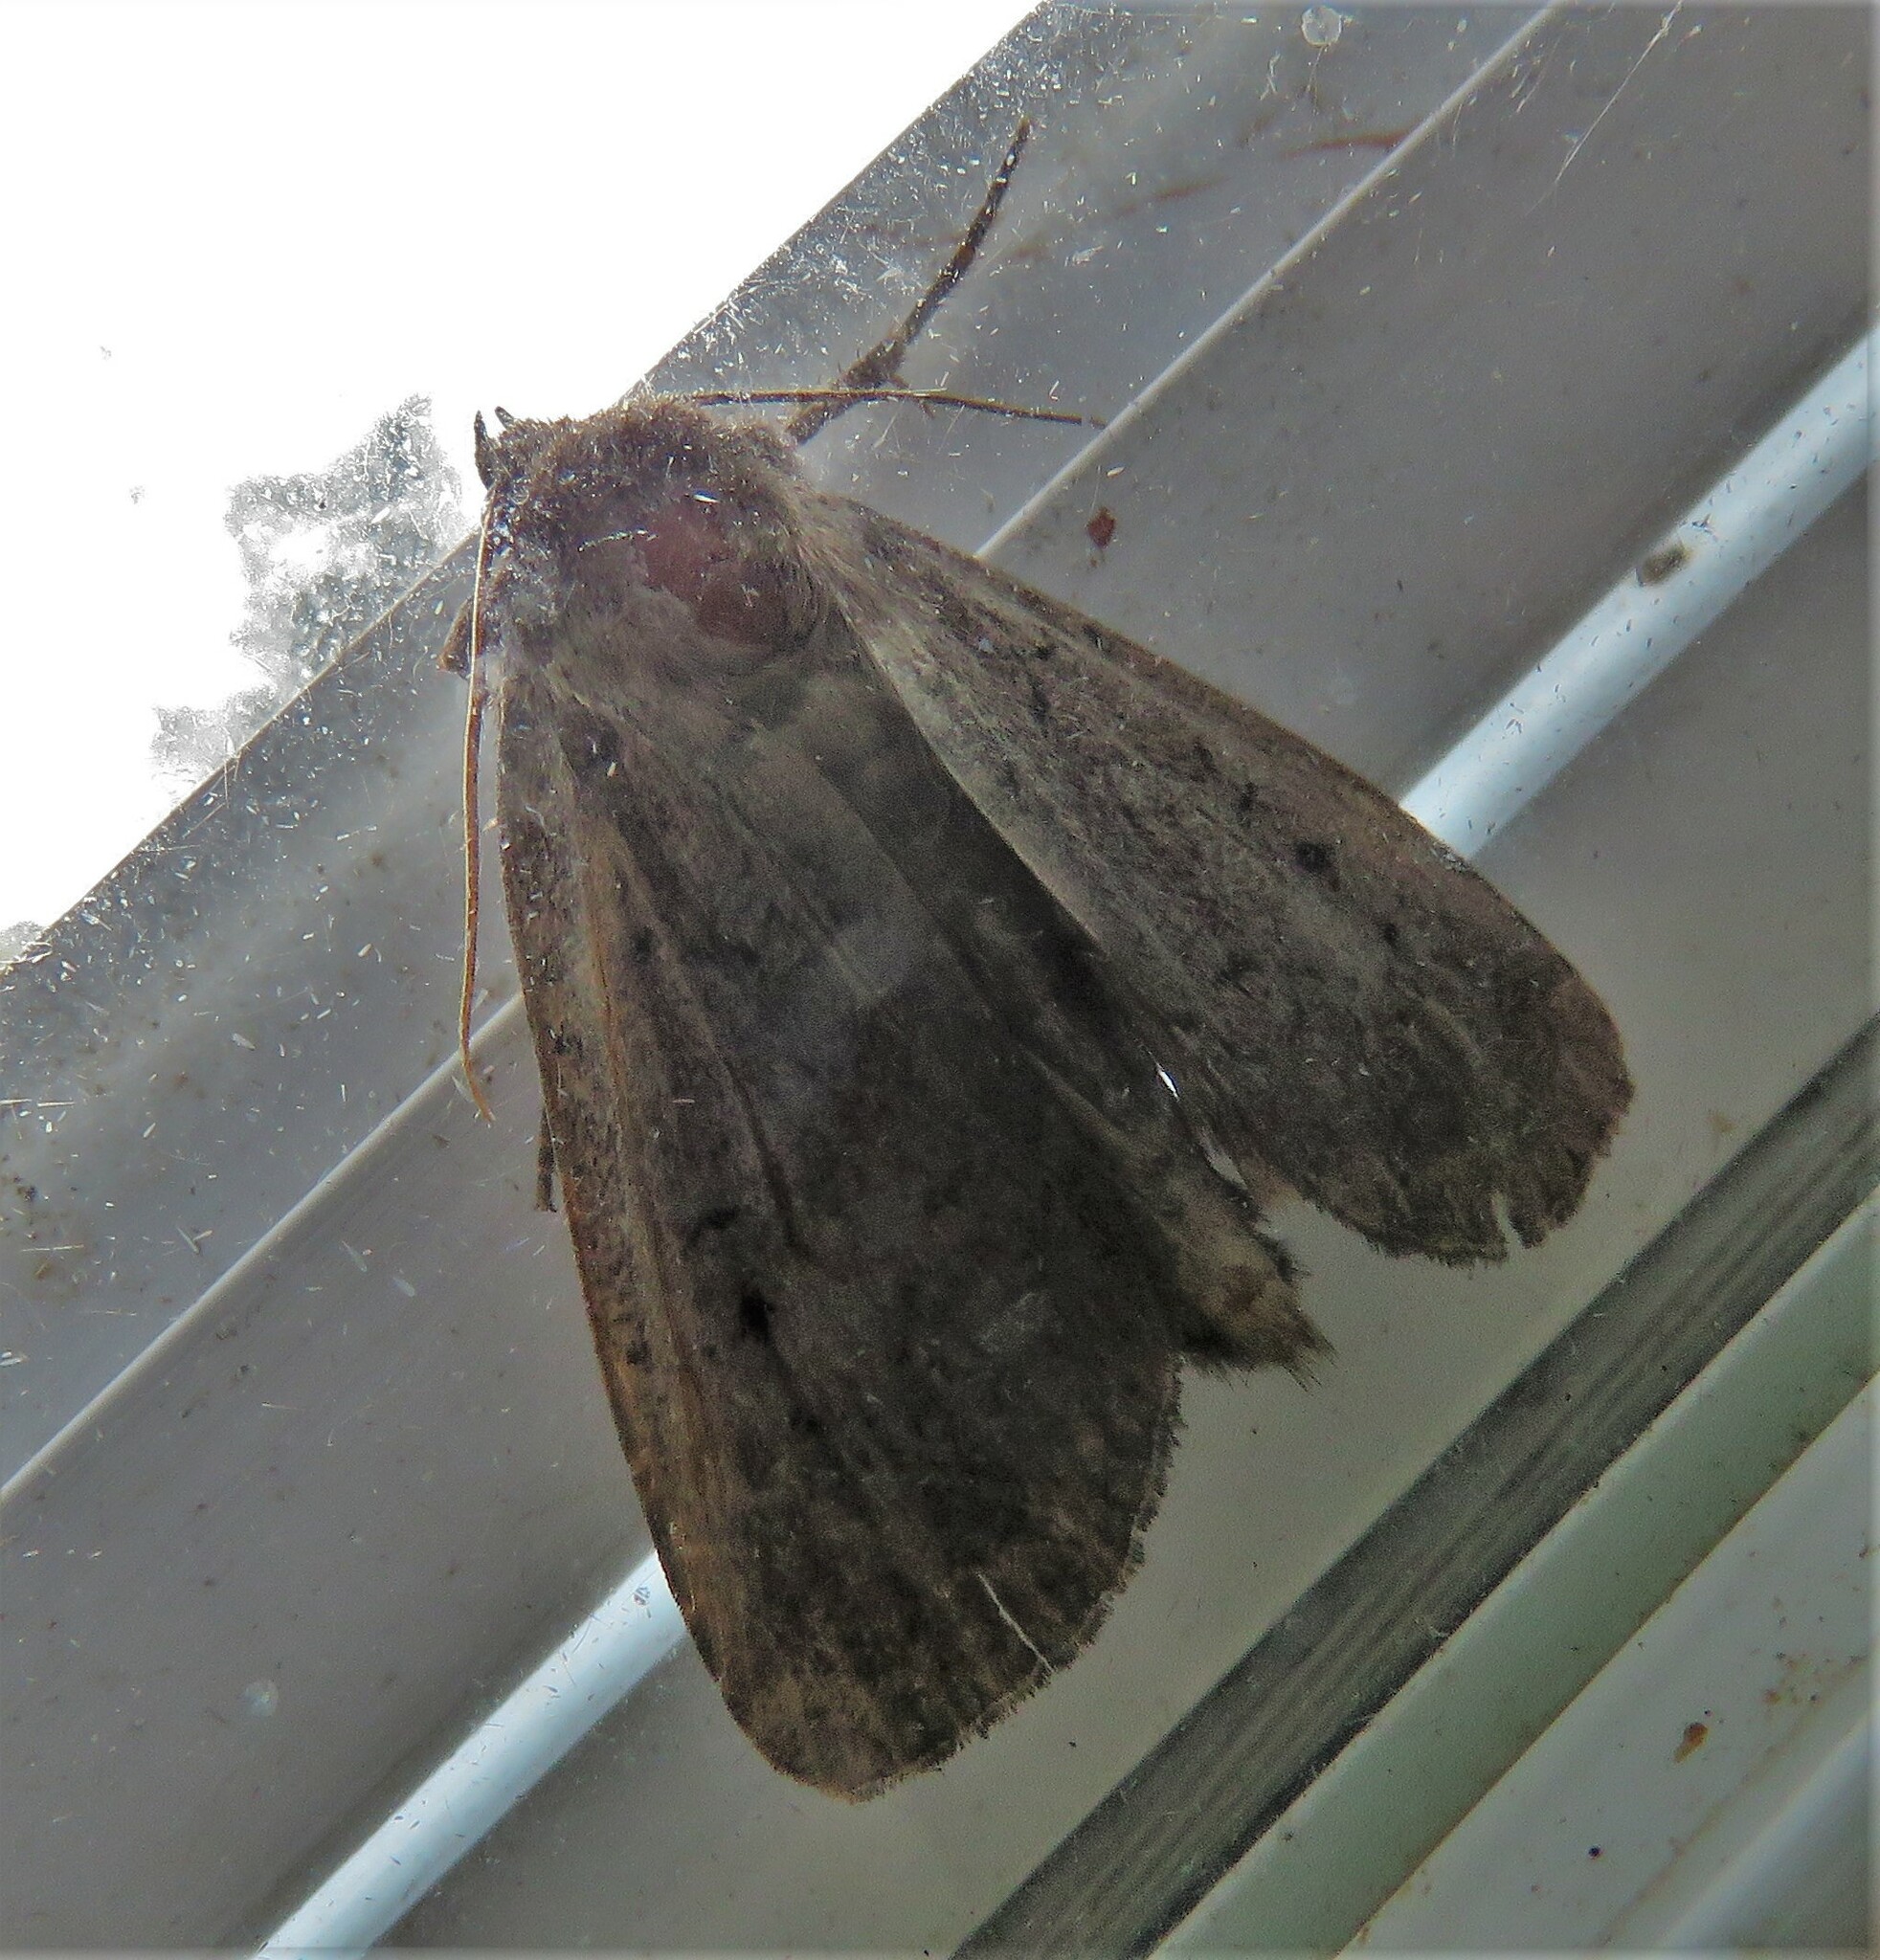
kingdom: Animalia
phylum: Arthropoda
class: Insecta
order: Lepidoptera
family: Noctuidae
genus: Graphiphora
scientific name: Graphiphora augur
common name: Double dart
